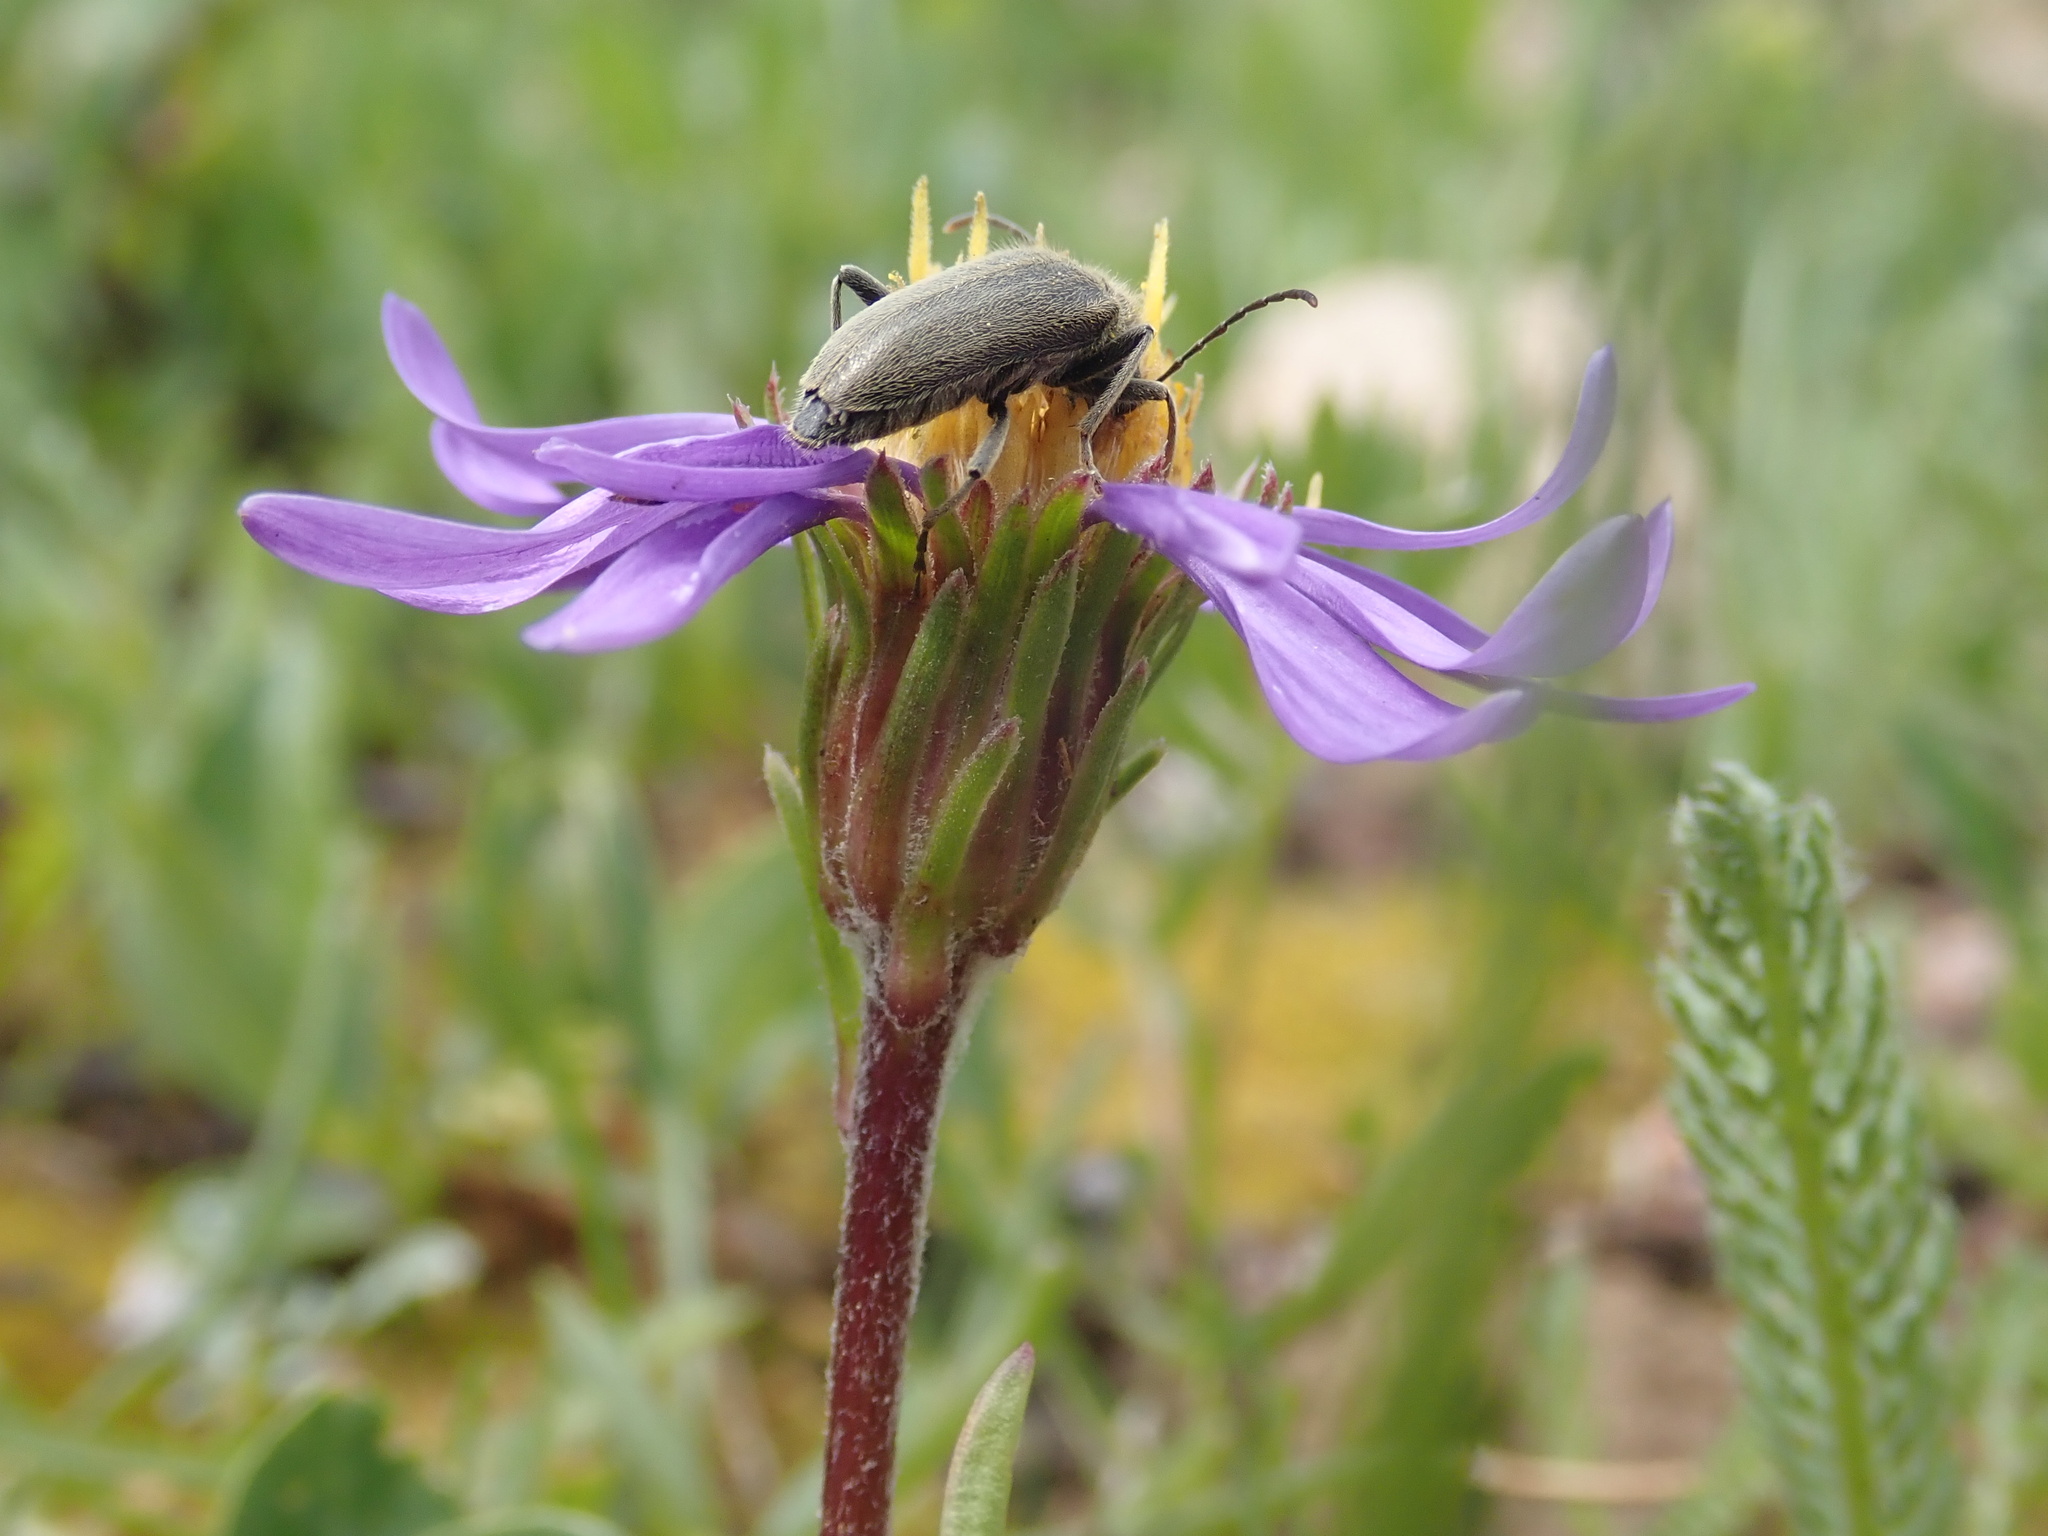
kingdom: Plantae
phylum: Tracheophyta
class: Magnoliopsida
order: Asterales
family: Asteraceae
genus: Oreostemma
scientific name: Oreostemma alpigenum
